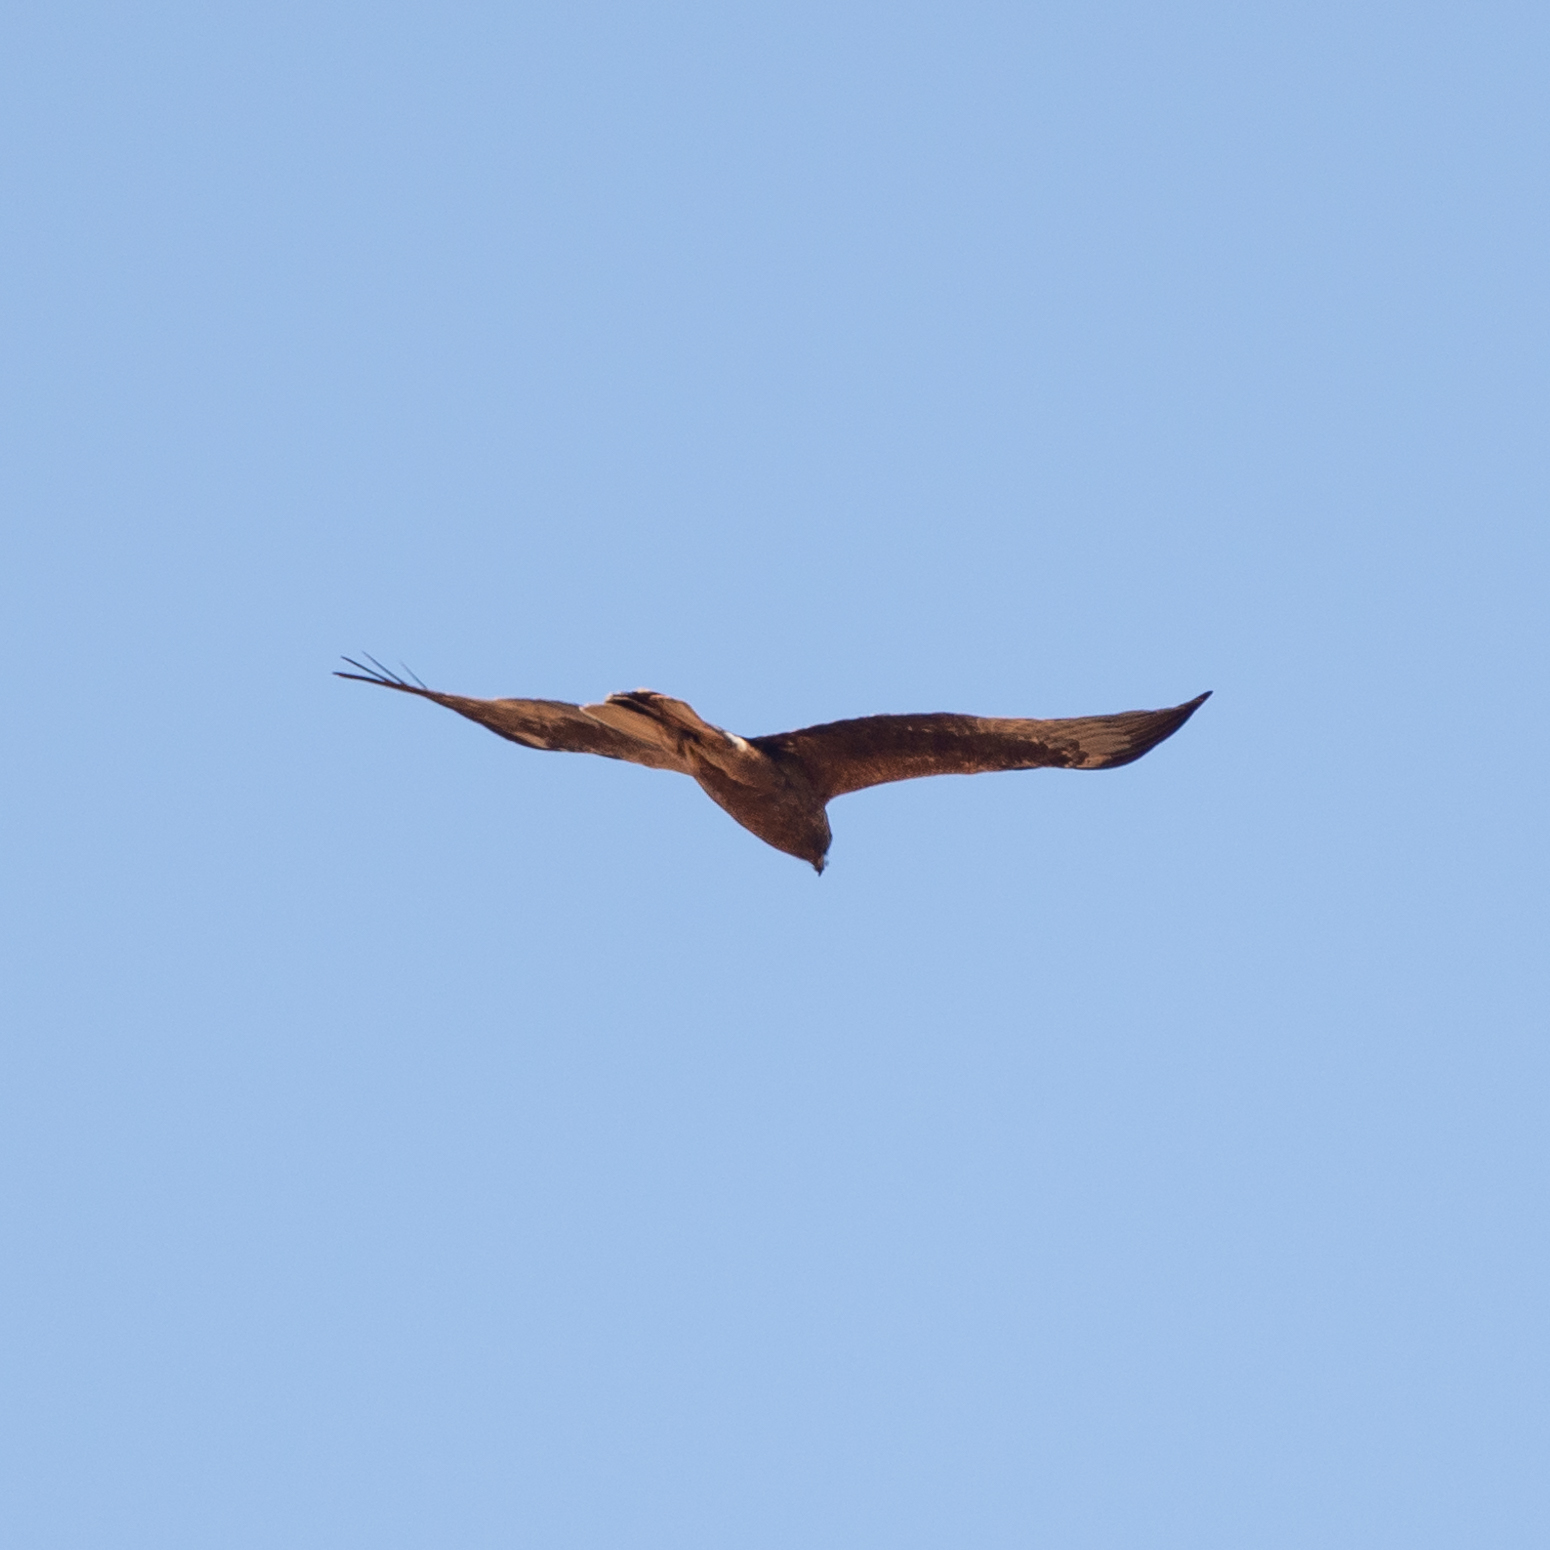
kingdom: Animalia
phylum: Chordata
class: Aves
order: Accipitriformes
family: Accipitridae
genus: Hieraaetus
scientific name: Hieraaetus pennatus
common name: Booted eagle
